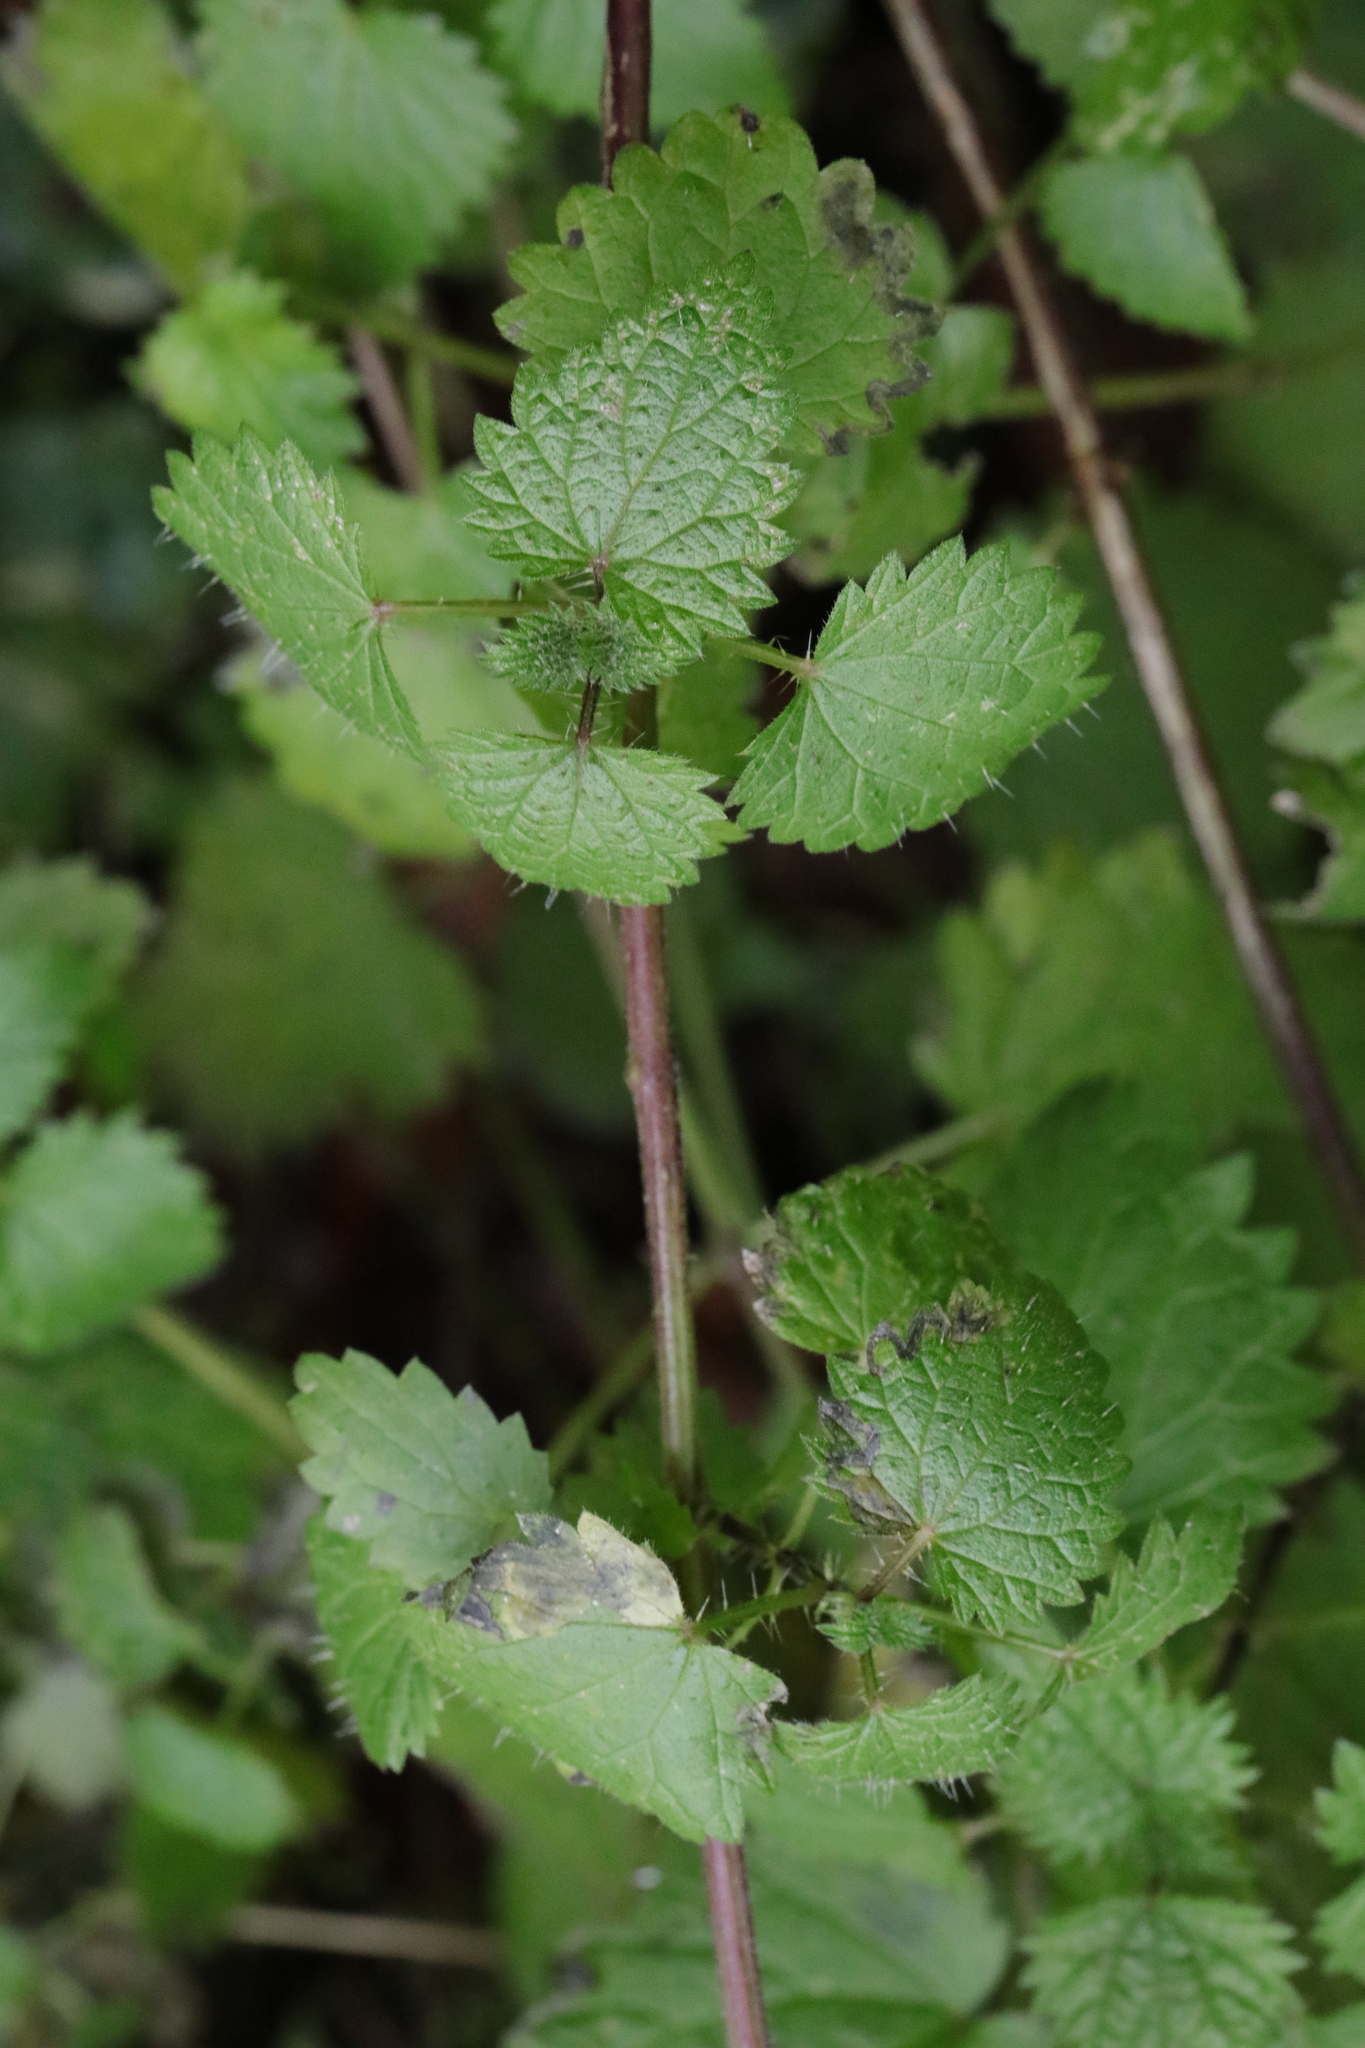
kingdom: Plantae
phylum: Tracheophyta
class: Magnoliopsida
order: Rosales
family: Urticaceae
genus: Urtica
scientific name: Urtica dioica
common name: Common nettle
